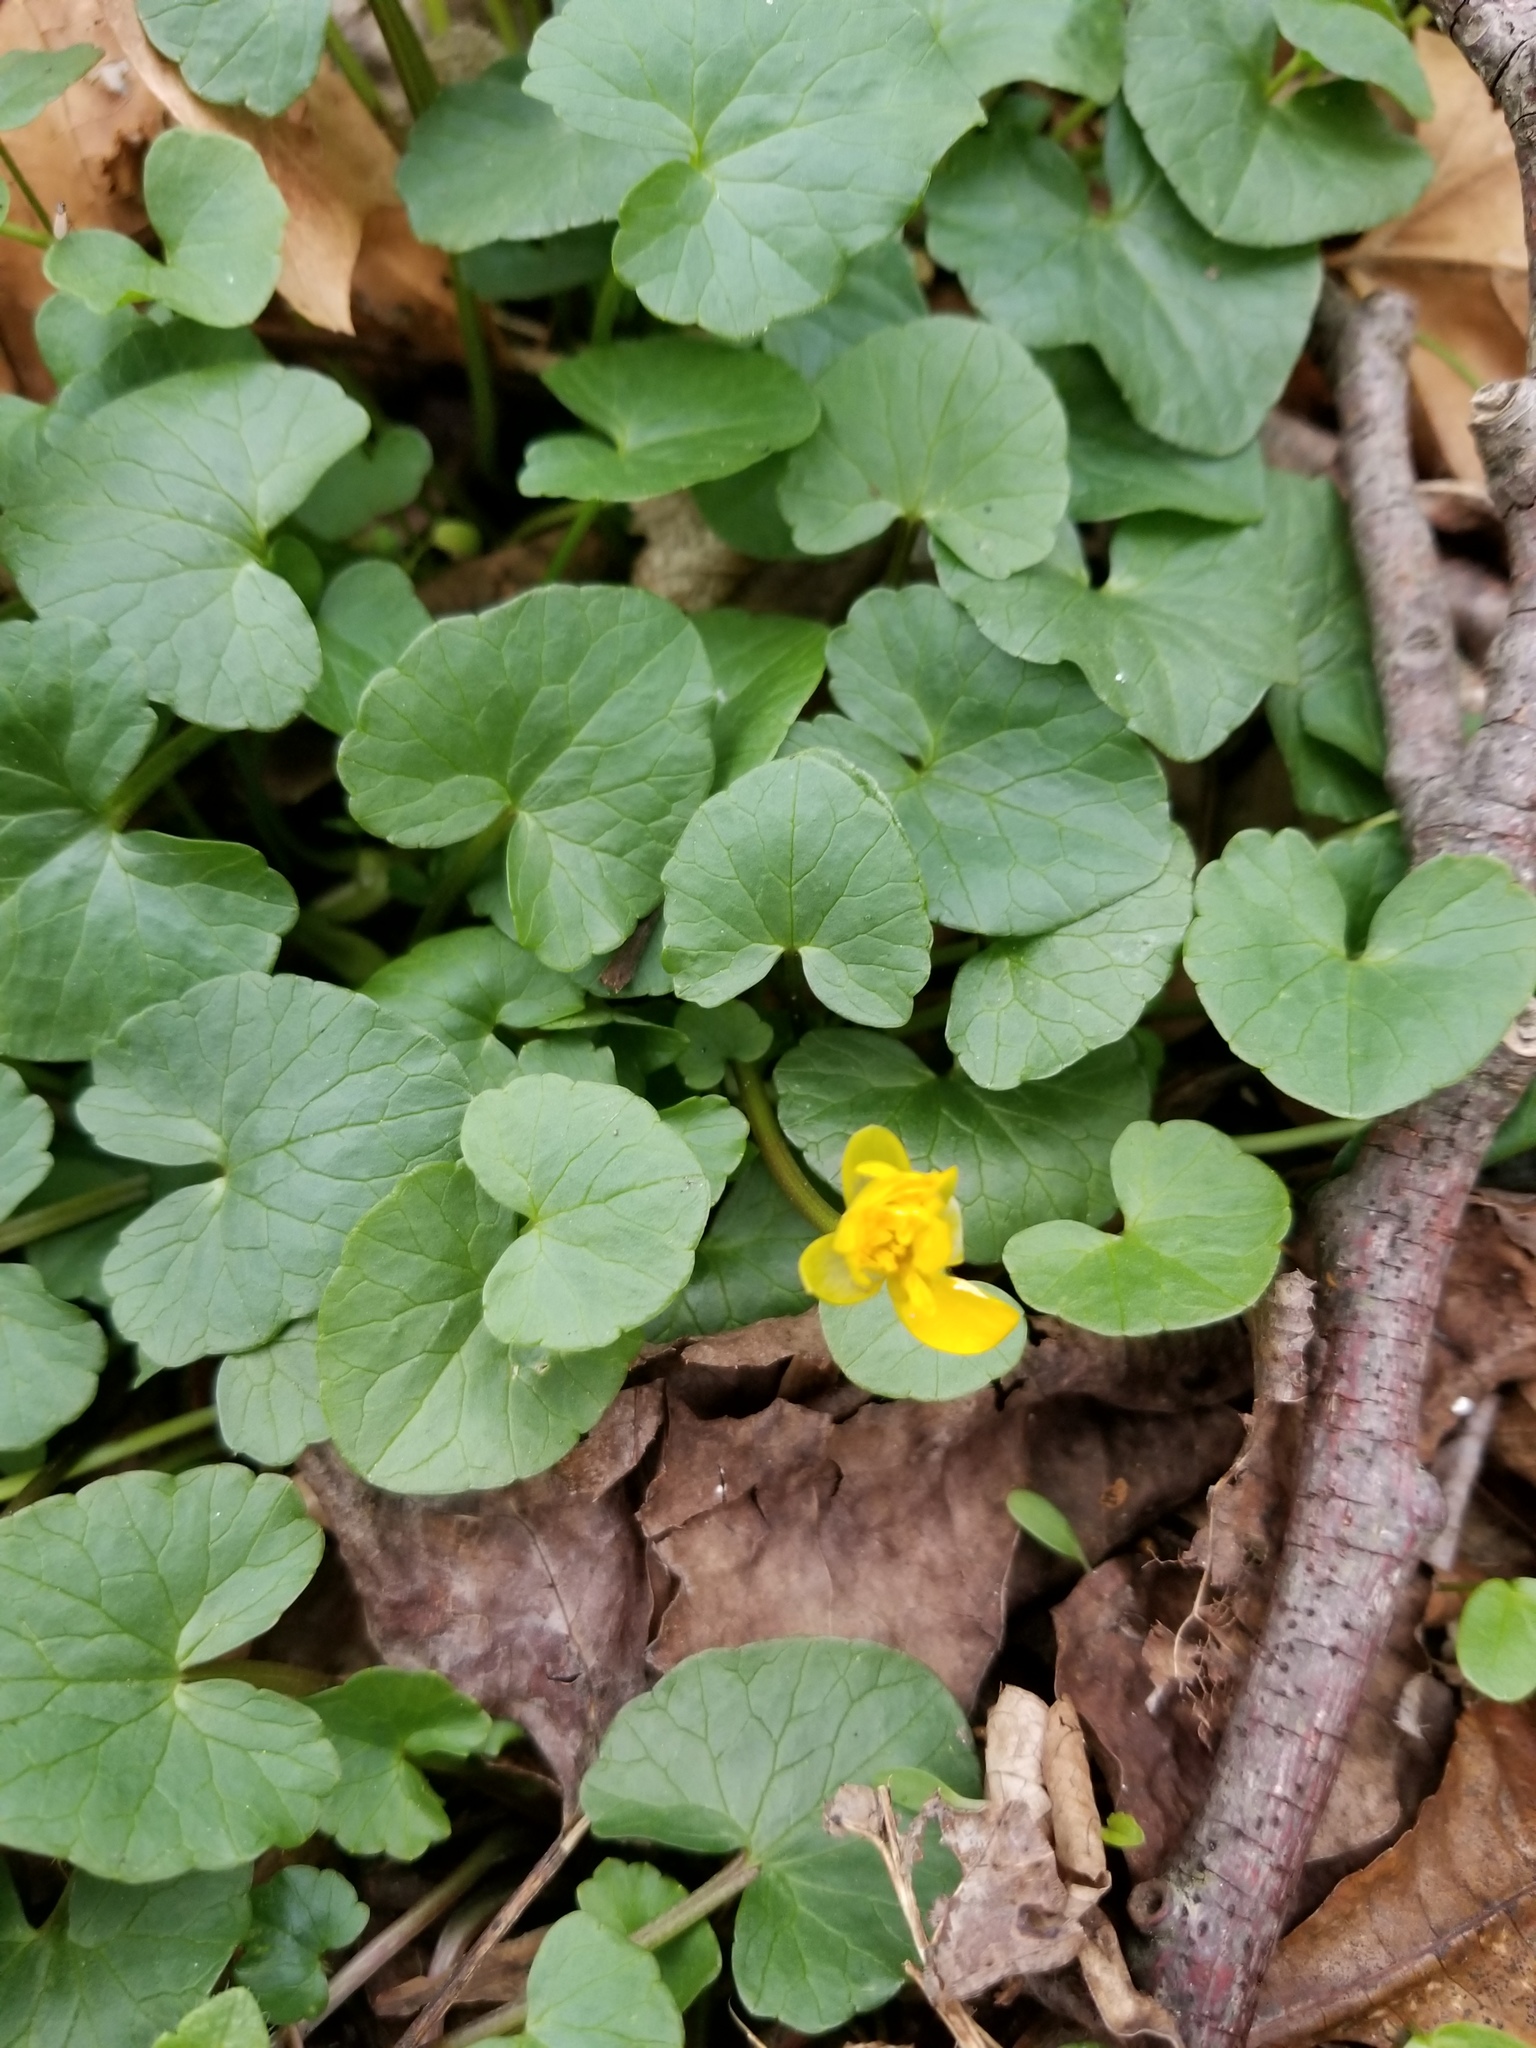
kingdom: Plantae
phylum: Tracheophyta
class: Magnoliopsida
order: Ranunculales
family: Ranunculaceae
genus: Ficaria
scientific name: Ficaria verna
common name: Lesser celandine
